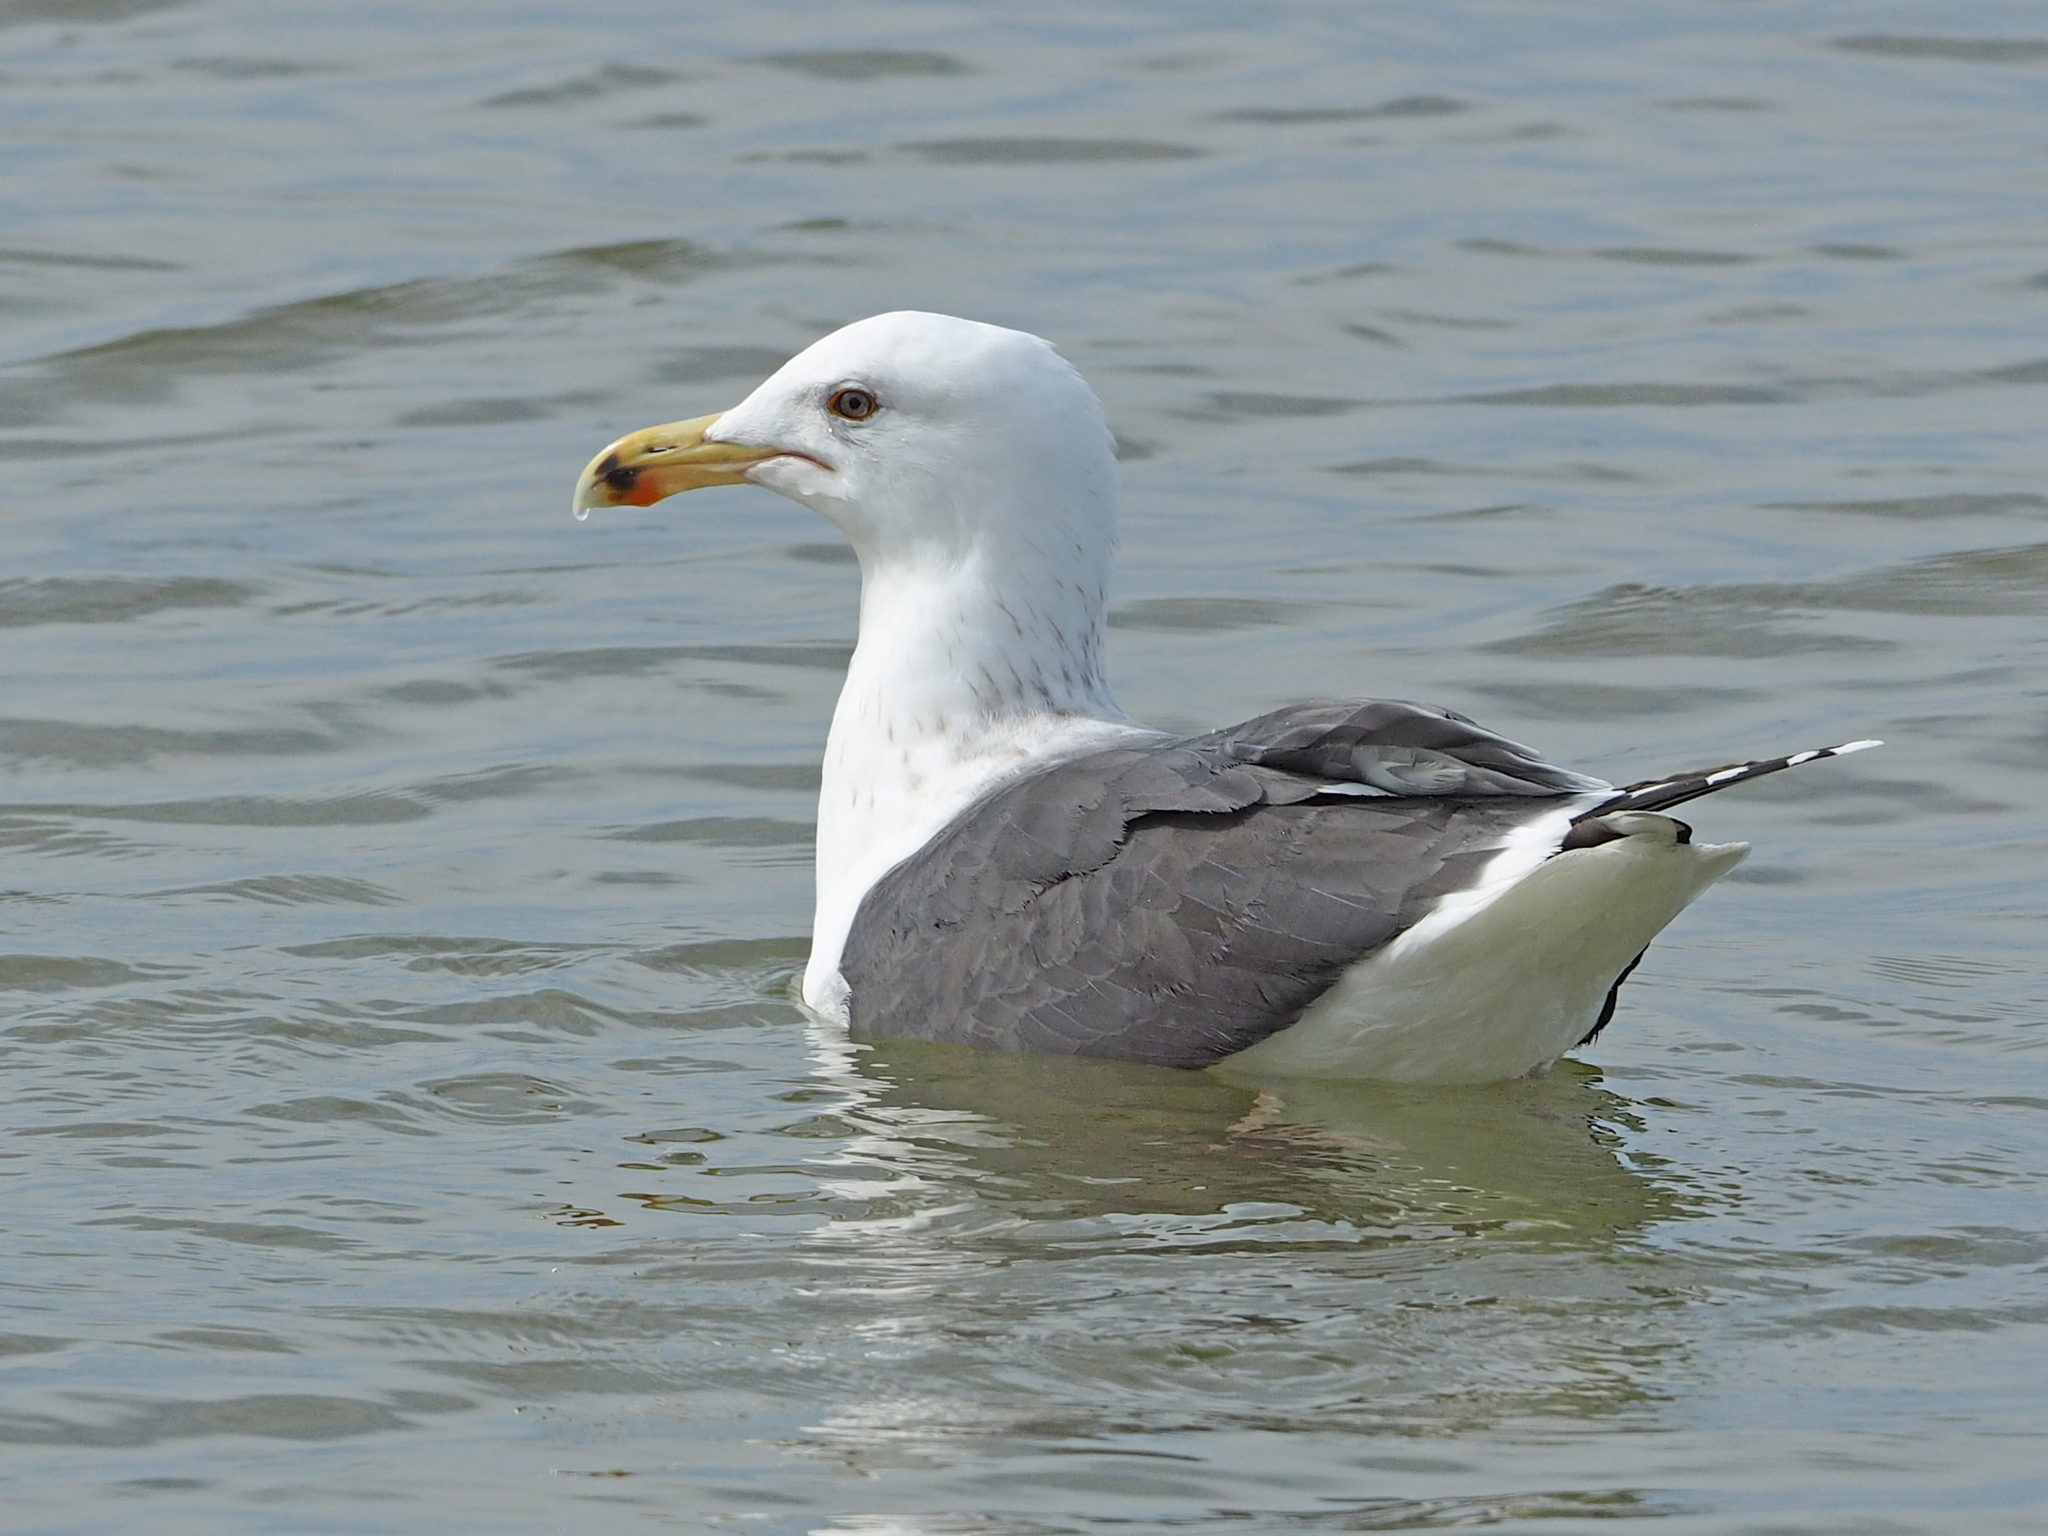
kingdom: Animalia
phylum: Chordata
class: Aves
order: Charadriiformes
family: Laridae
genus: Larus
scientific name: Larus fuscus
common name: Lesser black-backed gull
